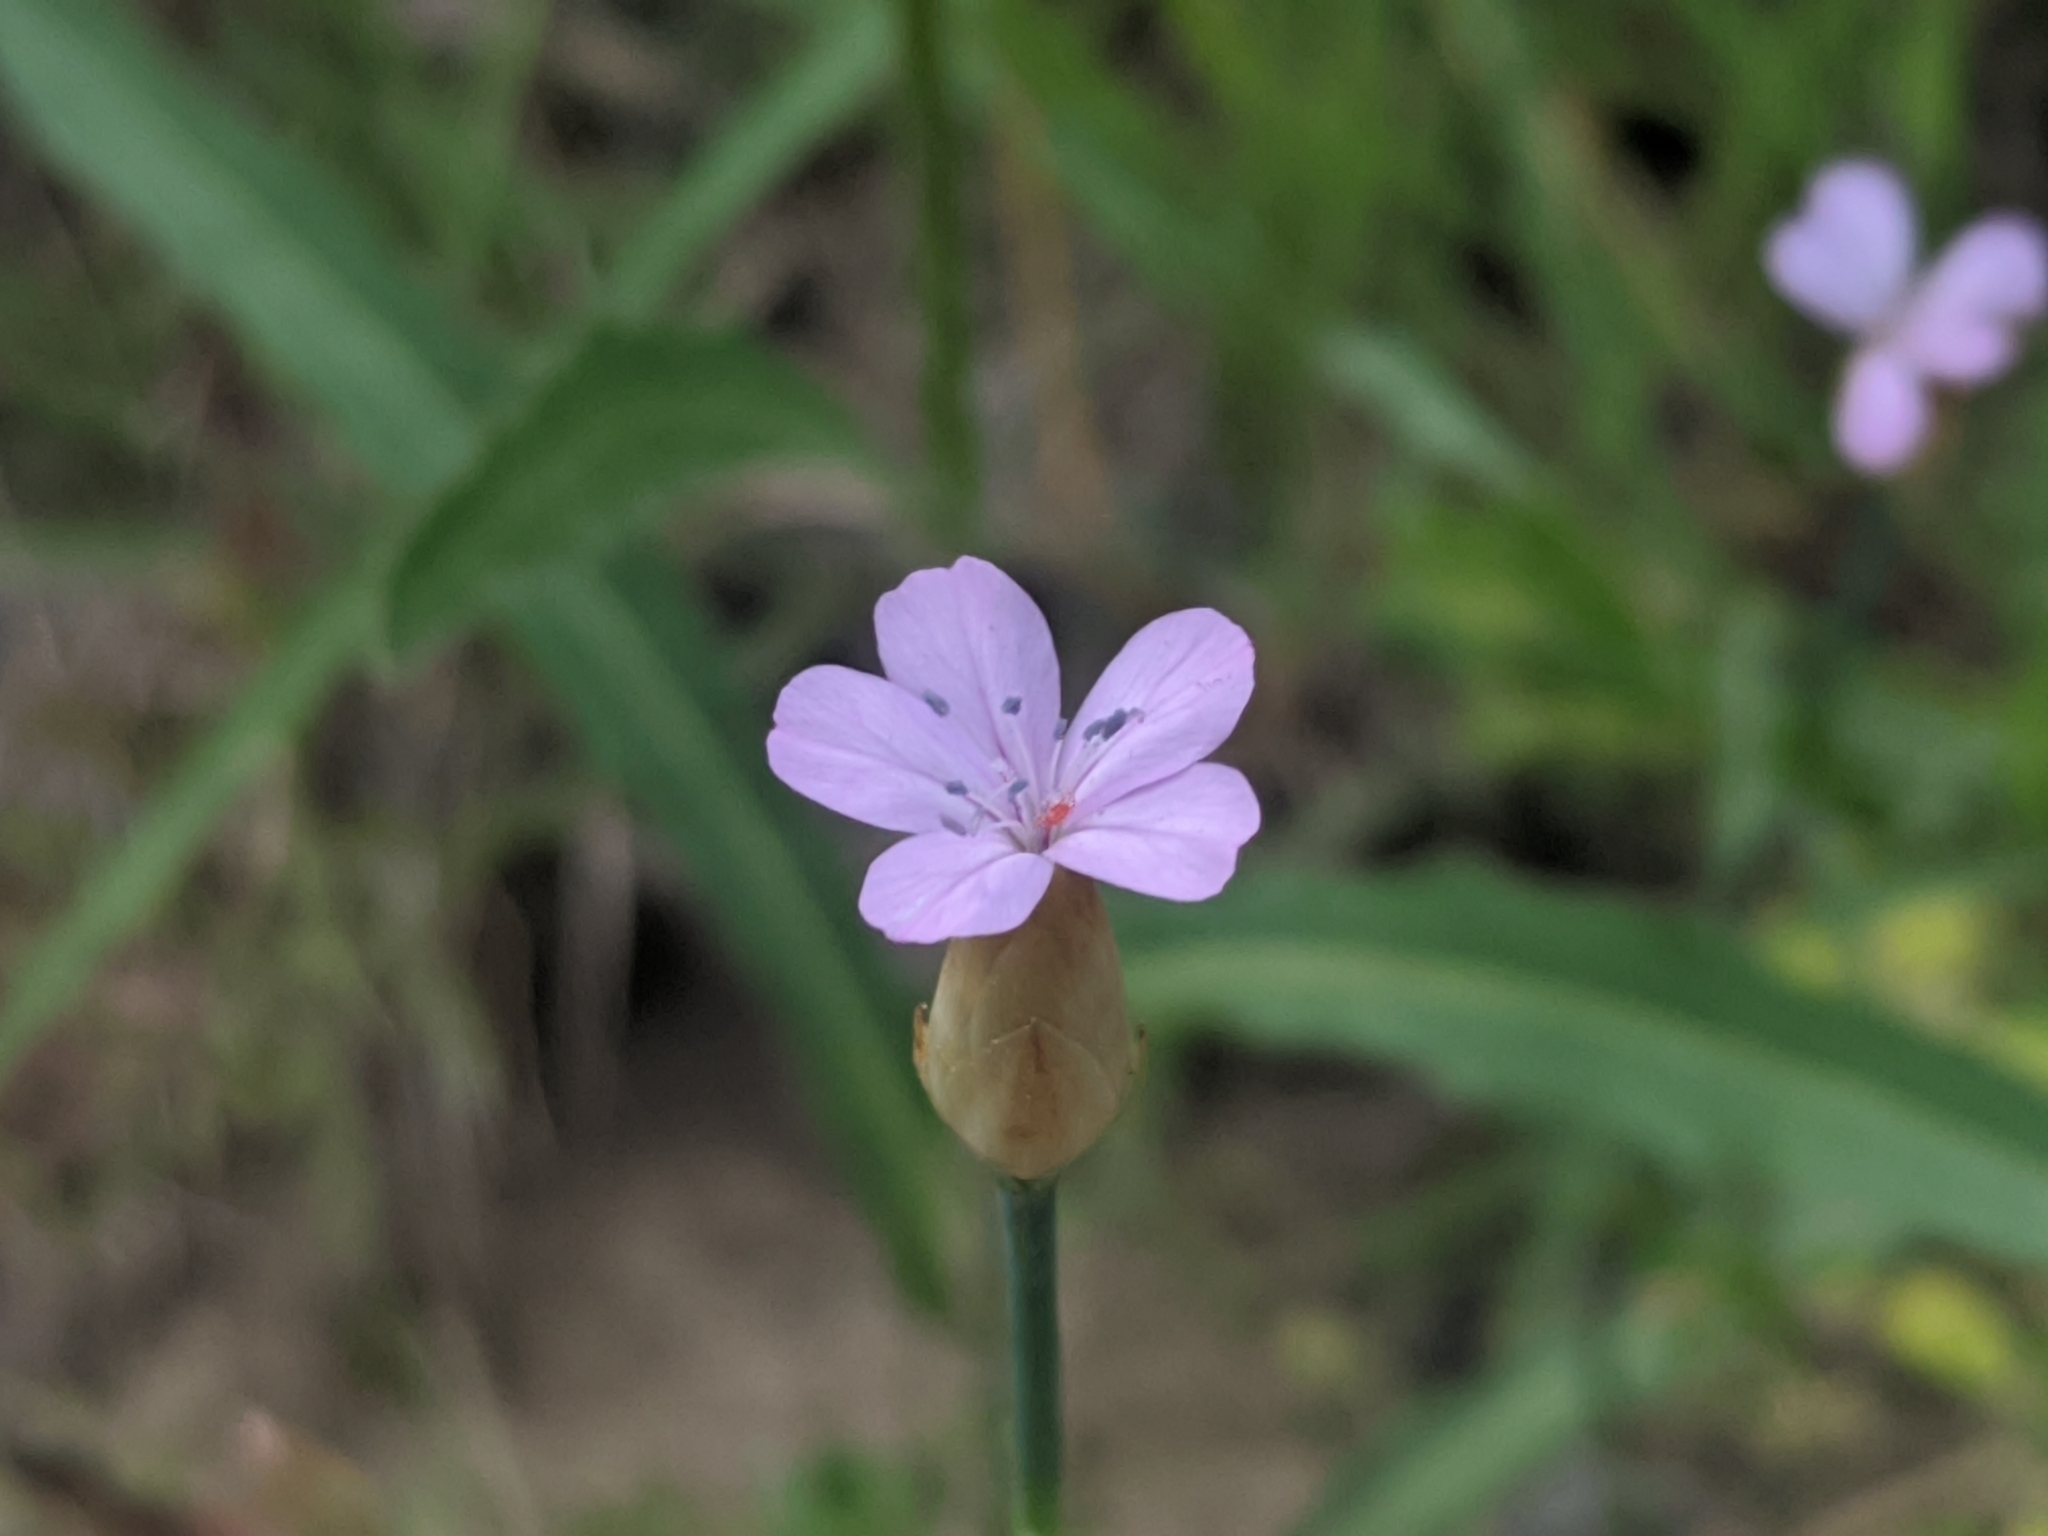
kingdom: Plantae
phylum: Tracheophyta
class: Magnoliopsida
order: Caryophyllales
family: Caryophyllaceae
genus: Petrorhagia
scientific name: Petrorhagia prolifera
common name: Proliferous pink
